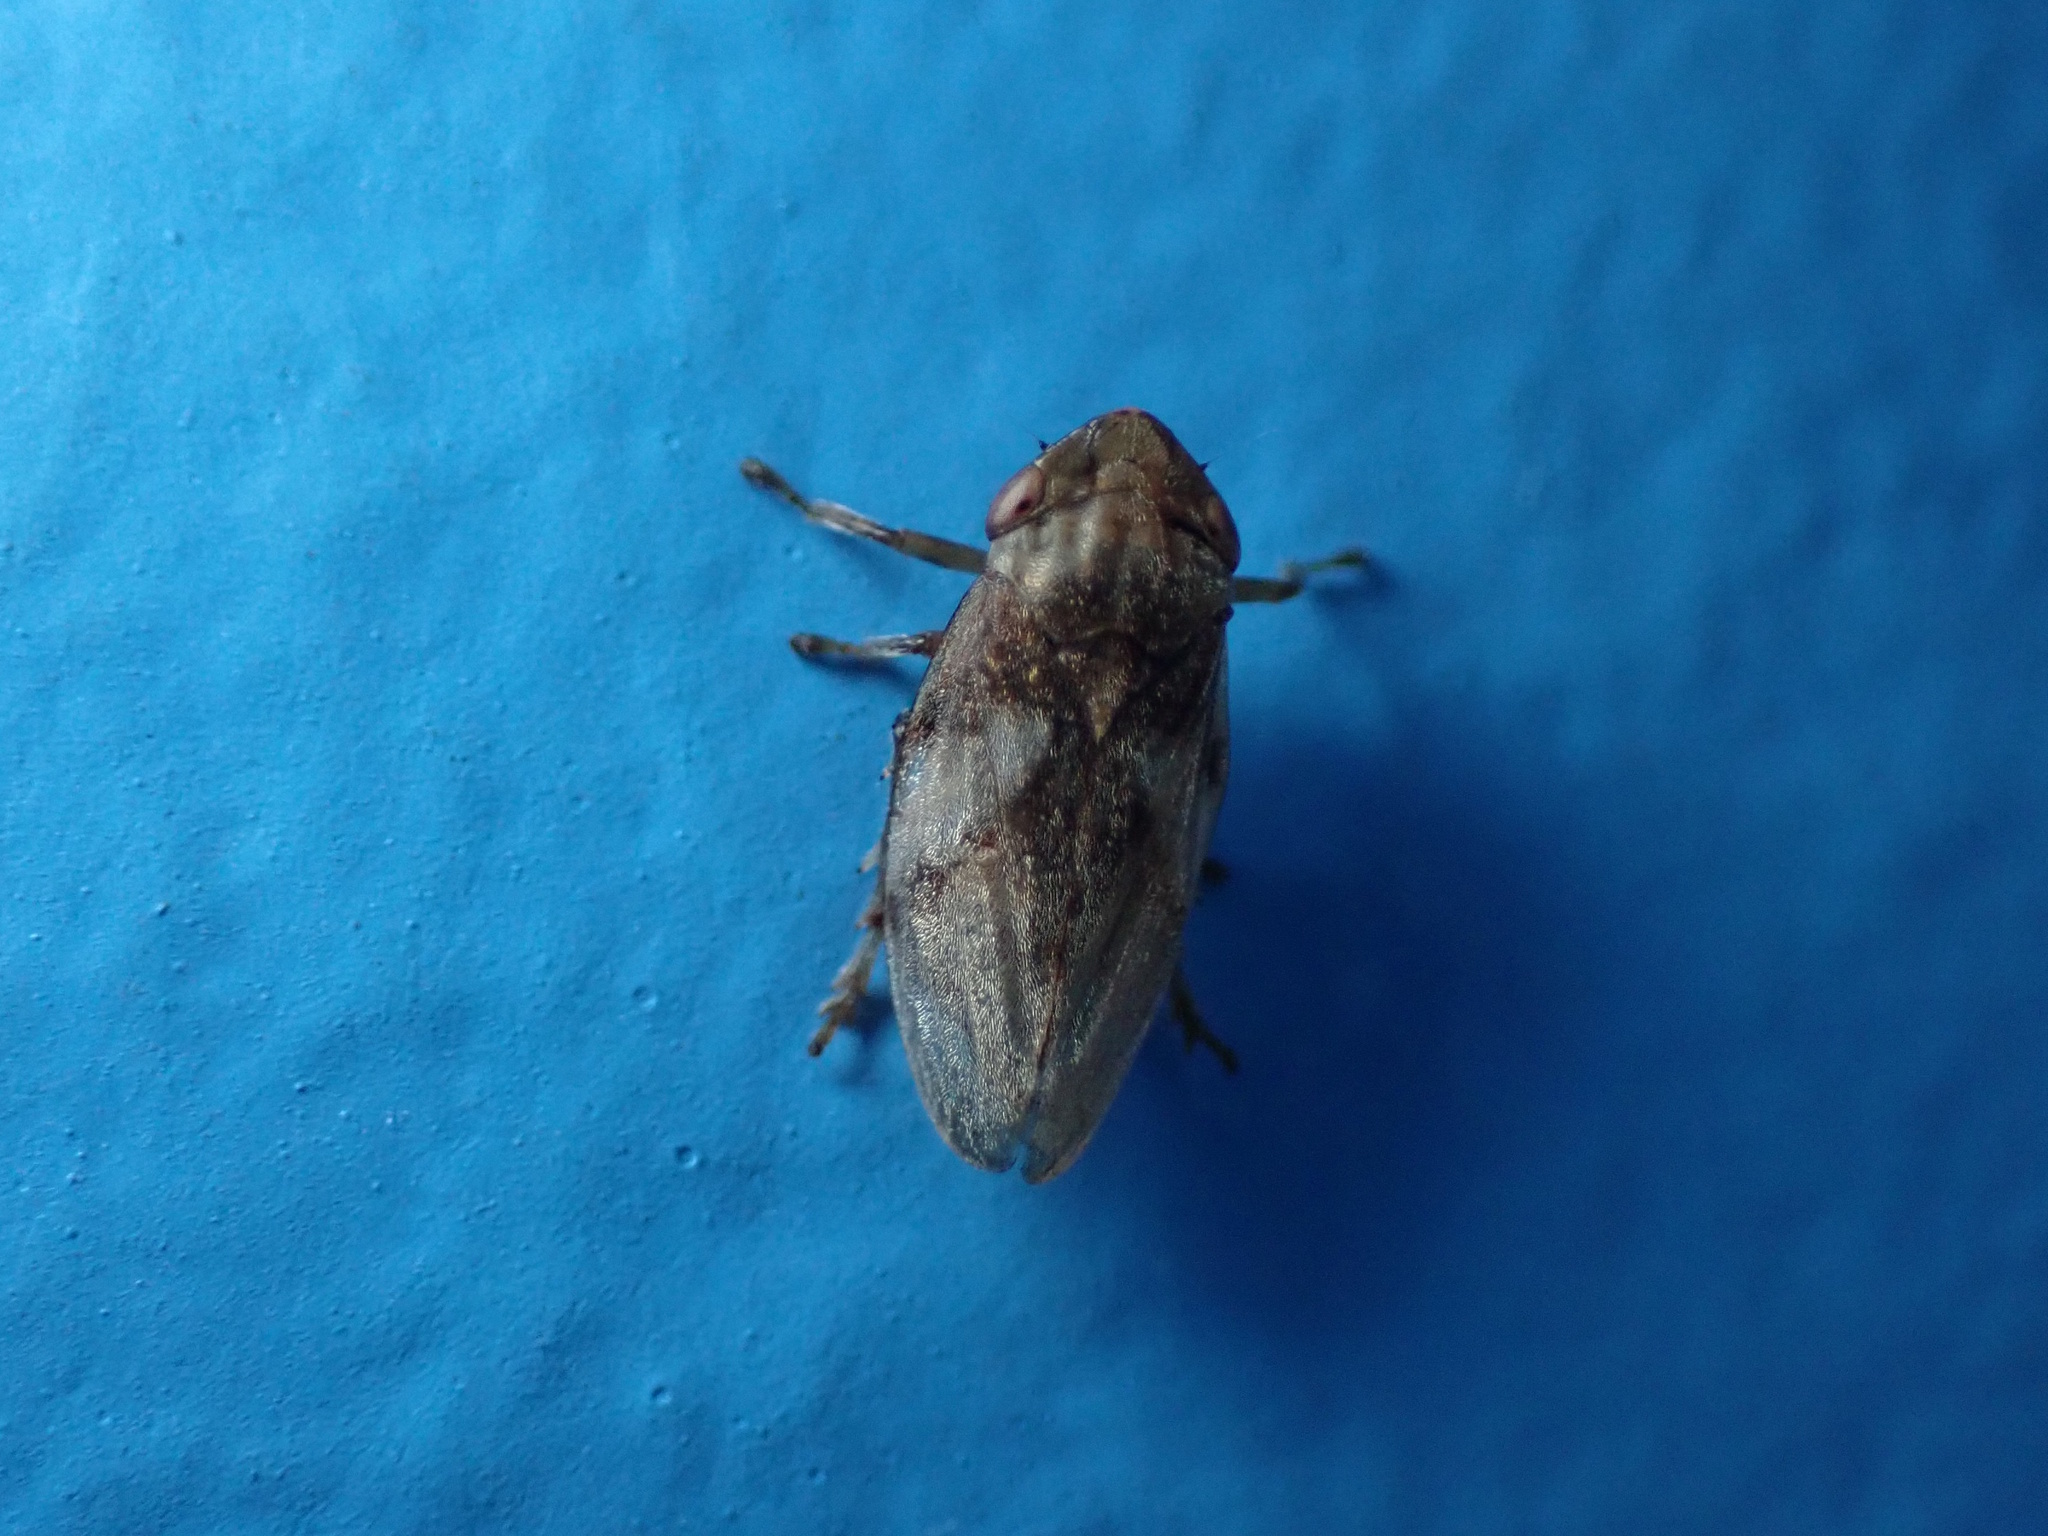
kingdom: Animalia
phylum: Arthropoda
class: Insecta
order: Hemiptera
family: Aphrophoridae
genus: Philaenus
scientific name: Philaenus spumarius
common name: Meadow spittlebug
